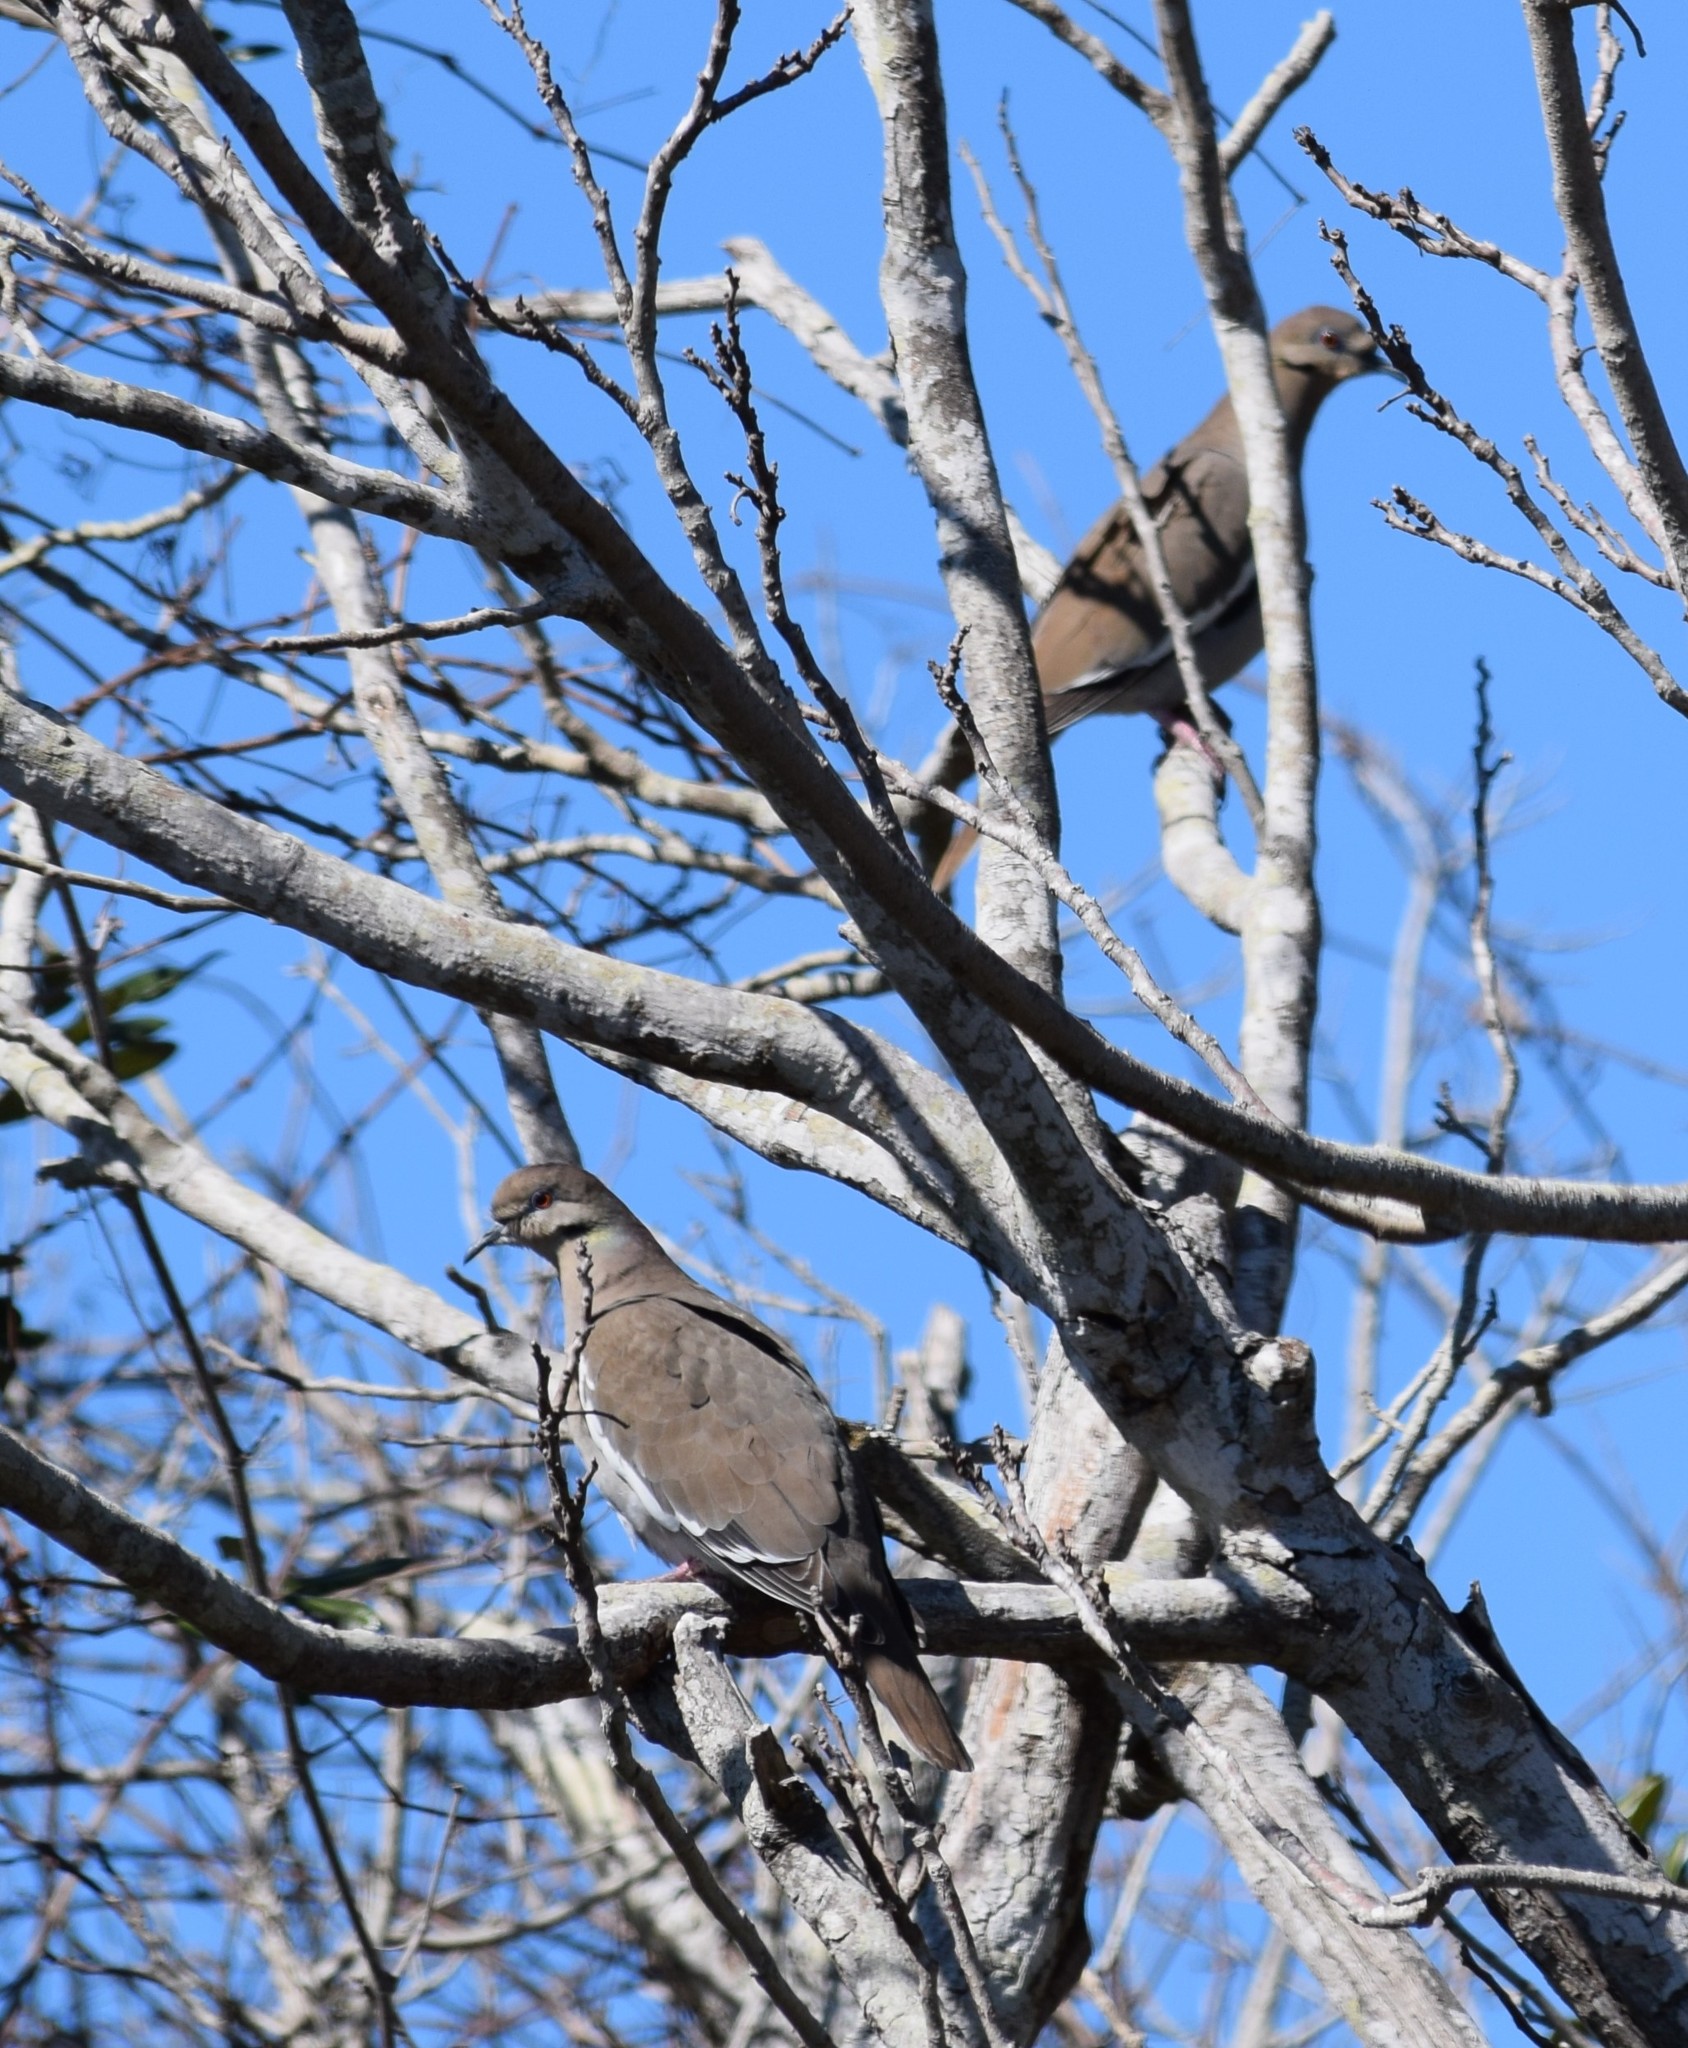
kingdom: Animalia
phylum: Chordata
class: Aves
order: Columbiformes
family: Columbidae
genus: Zenaida
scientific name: Zenaida asiatica
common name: White-winged dove
